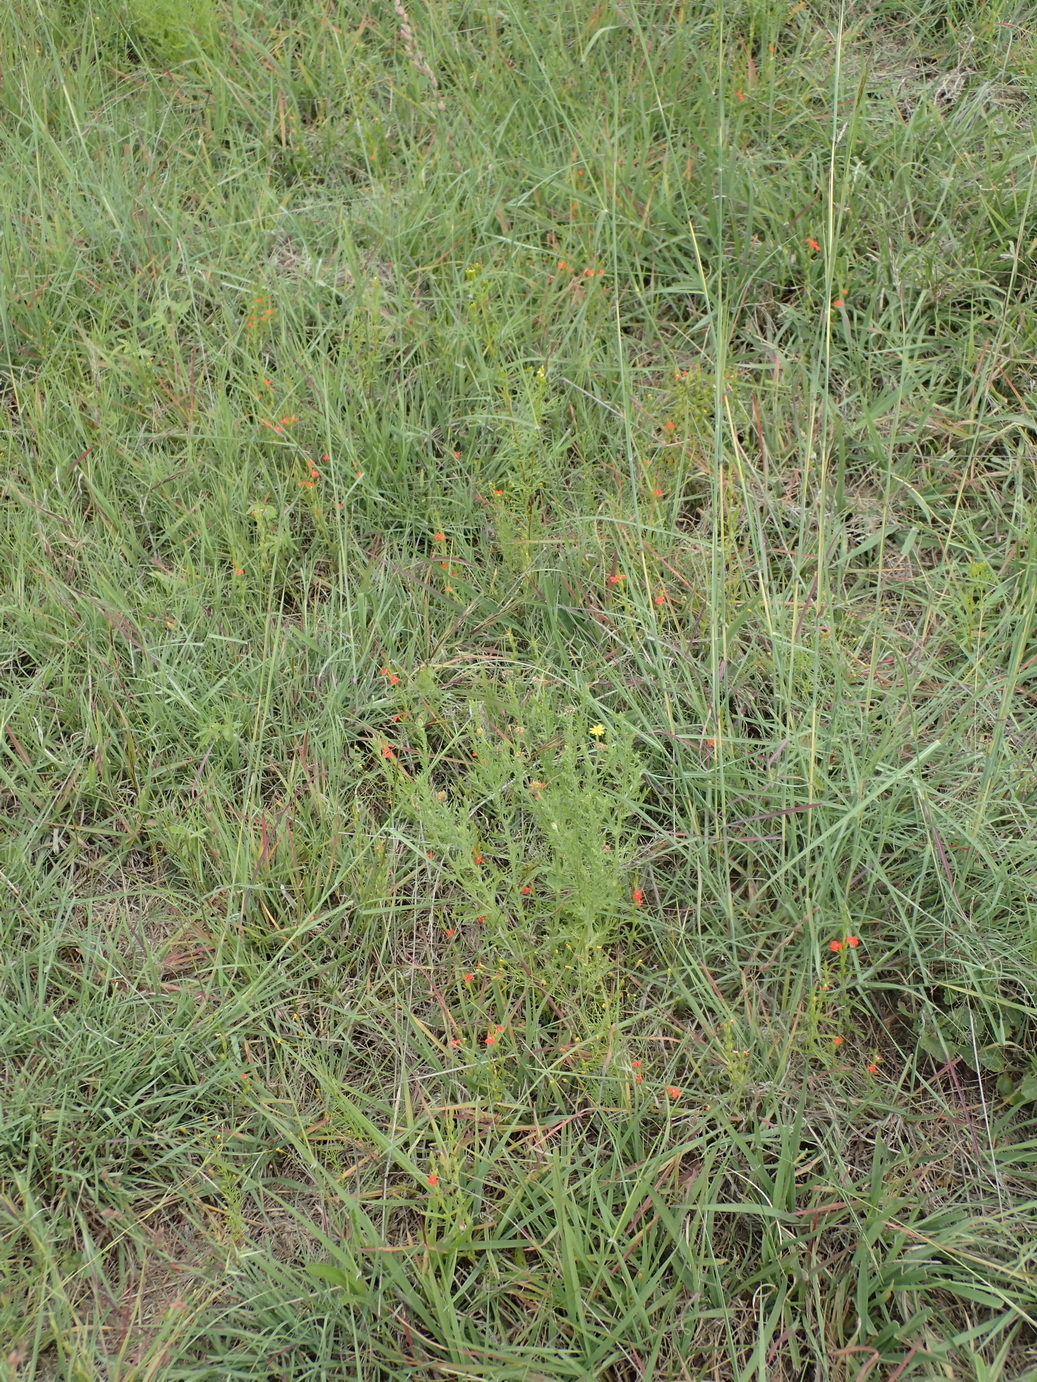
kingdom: Plantae
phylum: Tracheophyta
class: Magnoliopsida
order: Lamiales
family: Orobanchaceae
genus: Striga
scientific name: Striga elegans
